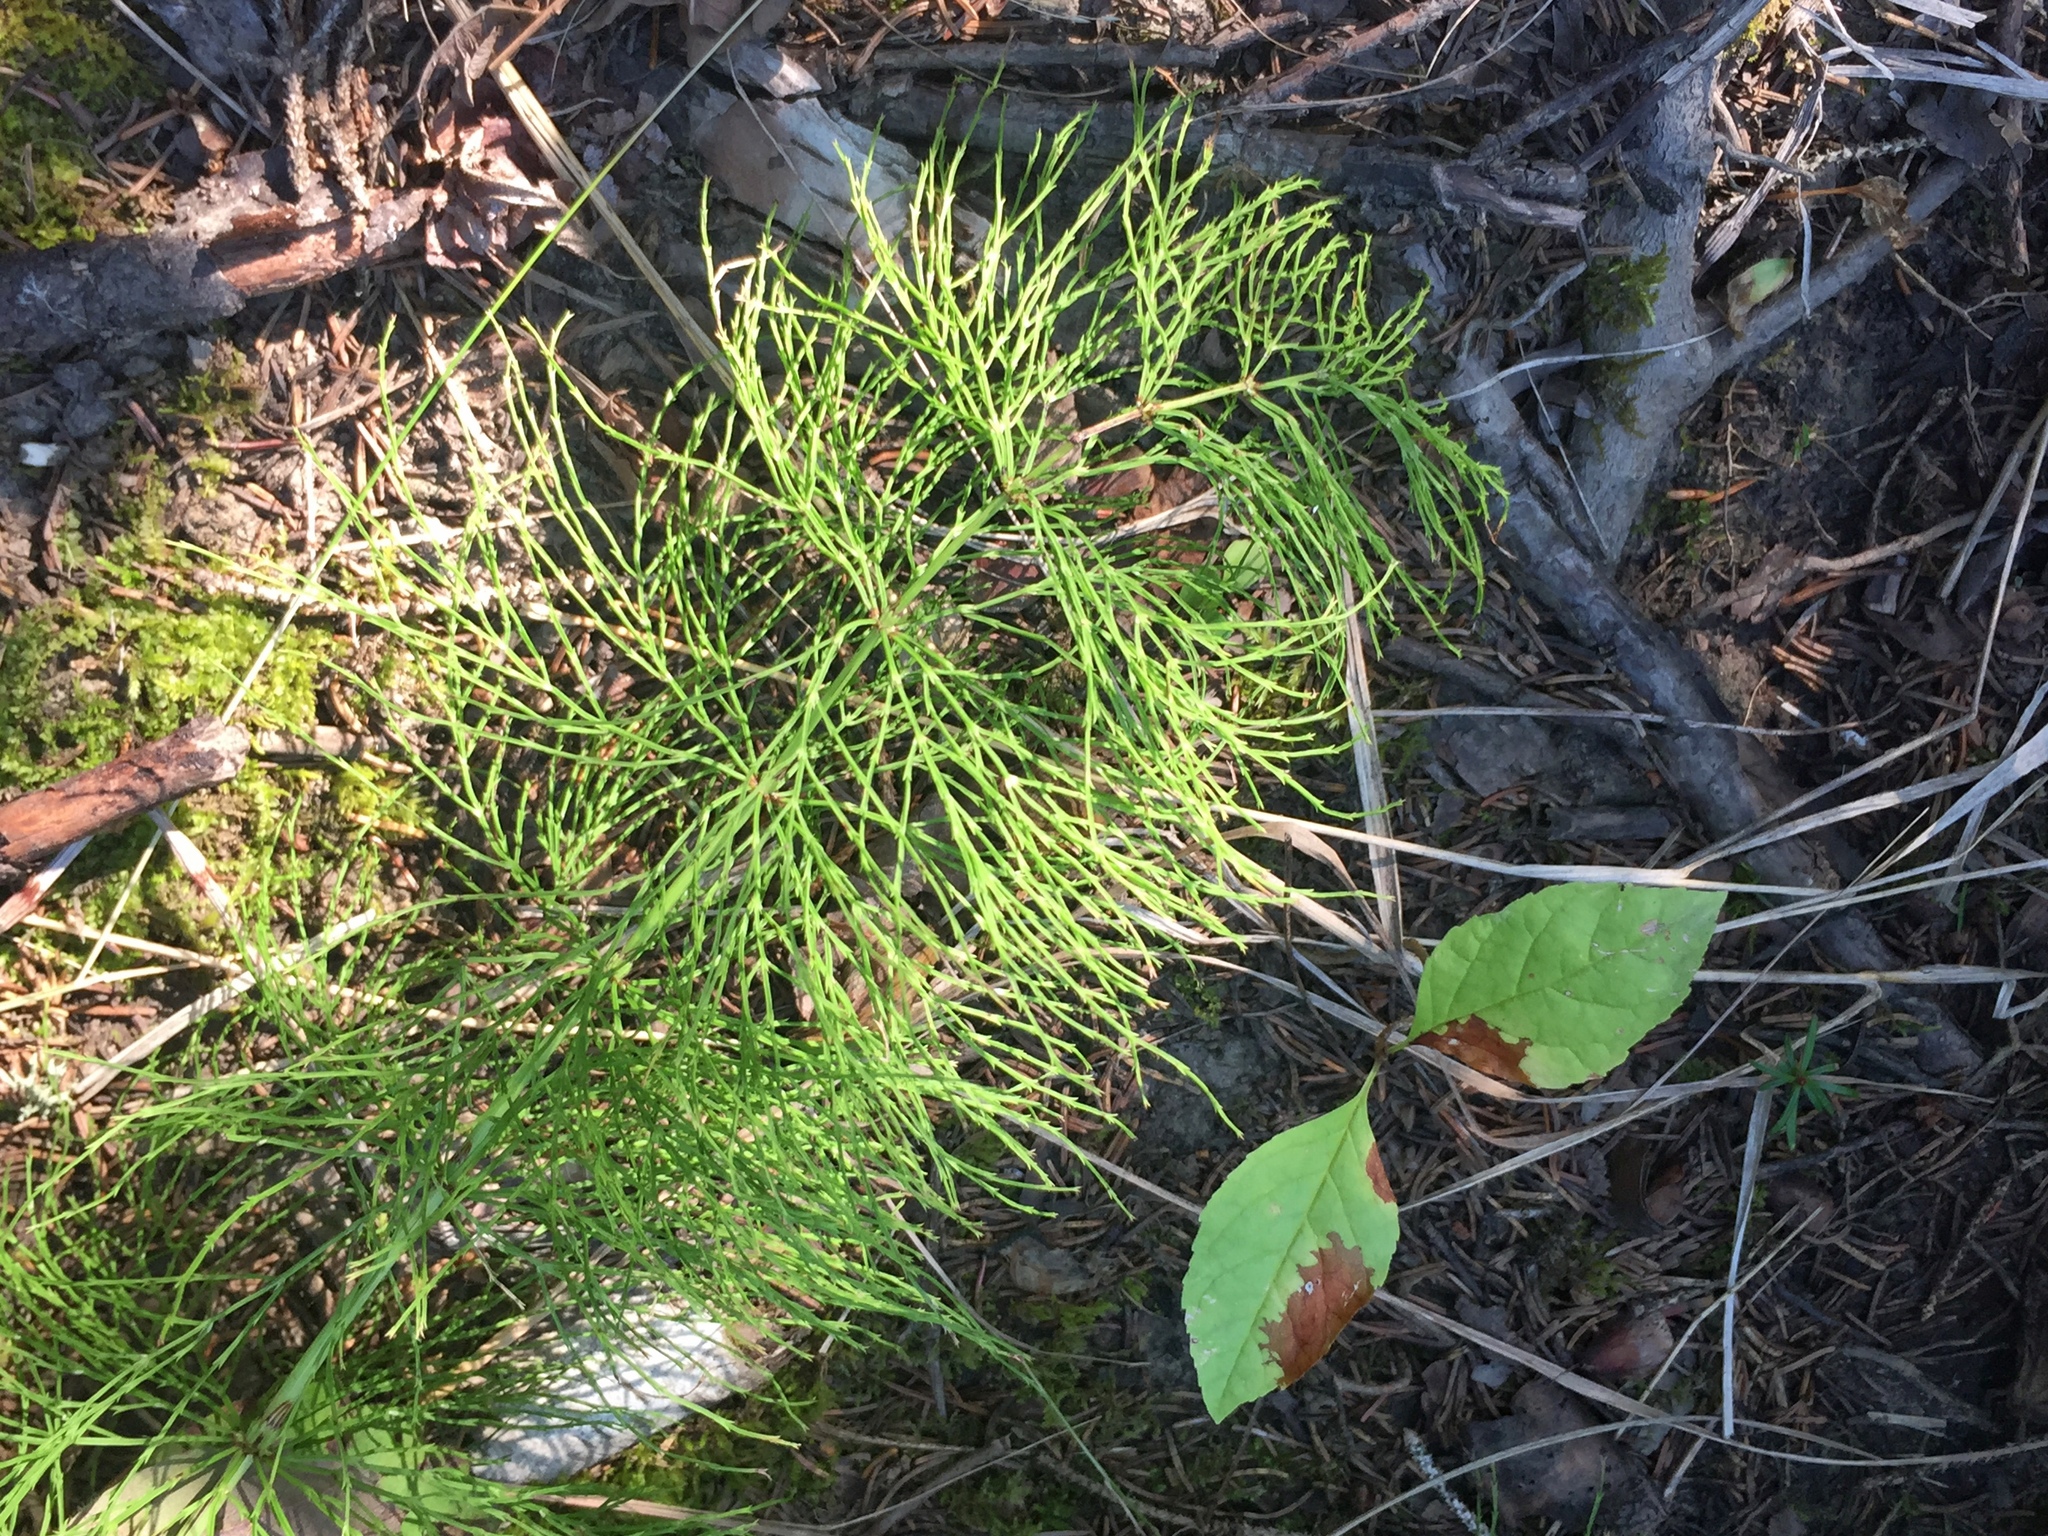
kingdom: Plantae
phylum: Tracheophyta
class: Polypodiopsida
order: Equisetales
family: Equisetaceae
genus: Equisetum
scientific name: Equisetum sylvaticum
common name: Wood horsetail
